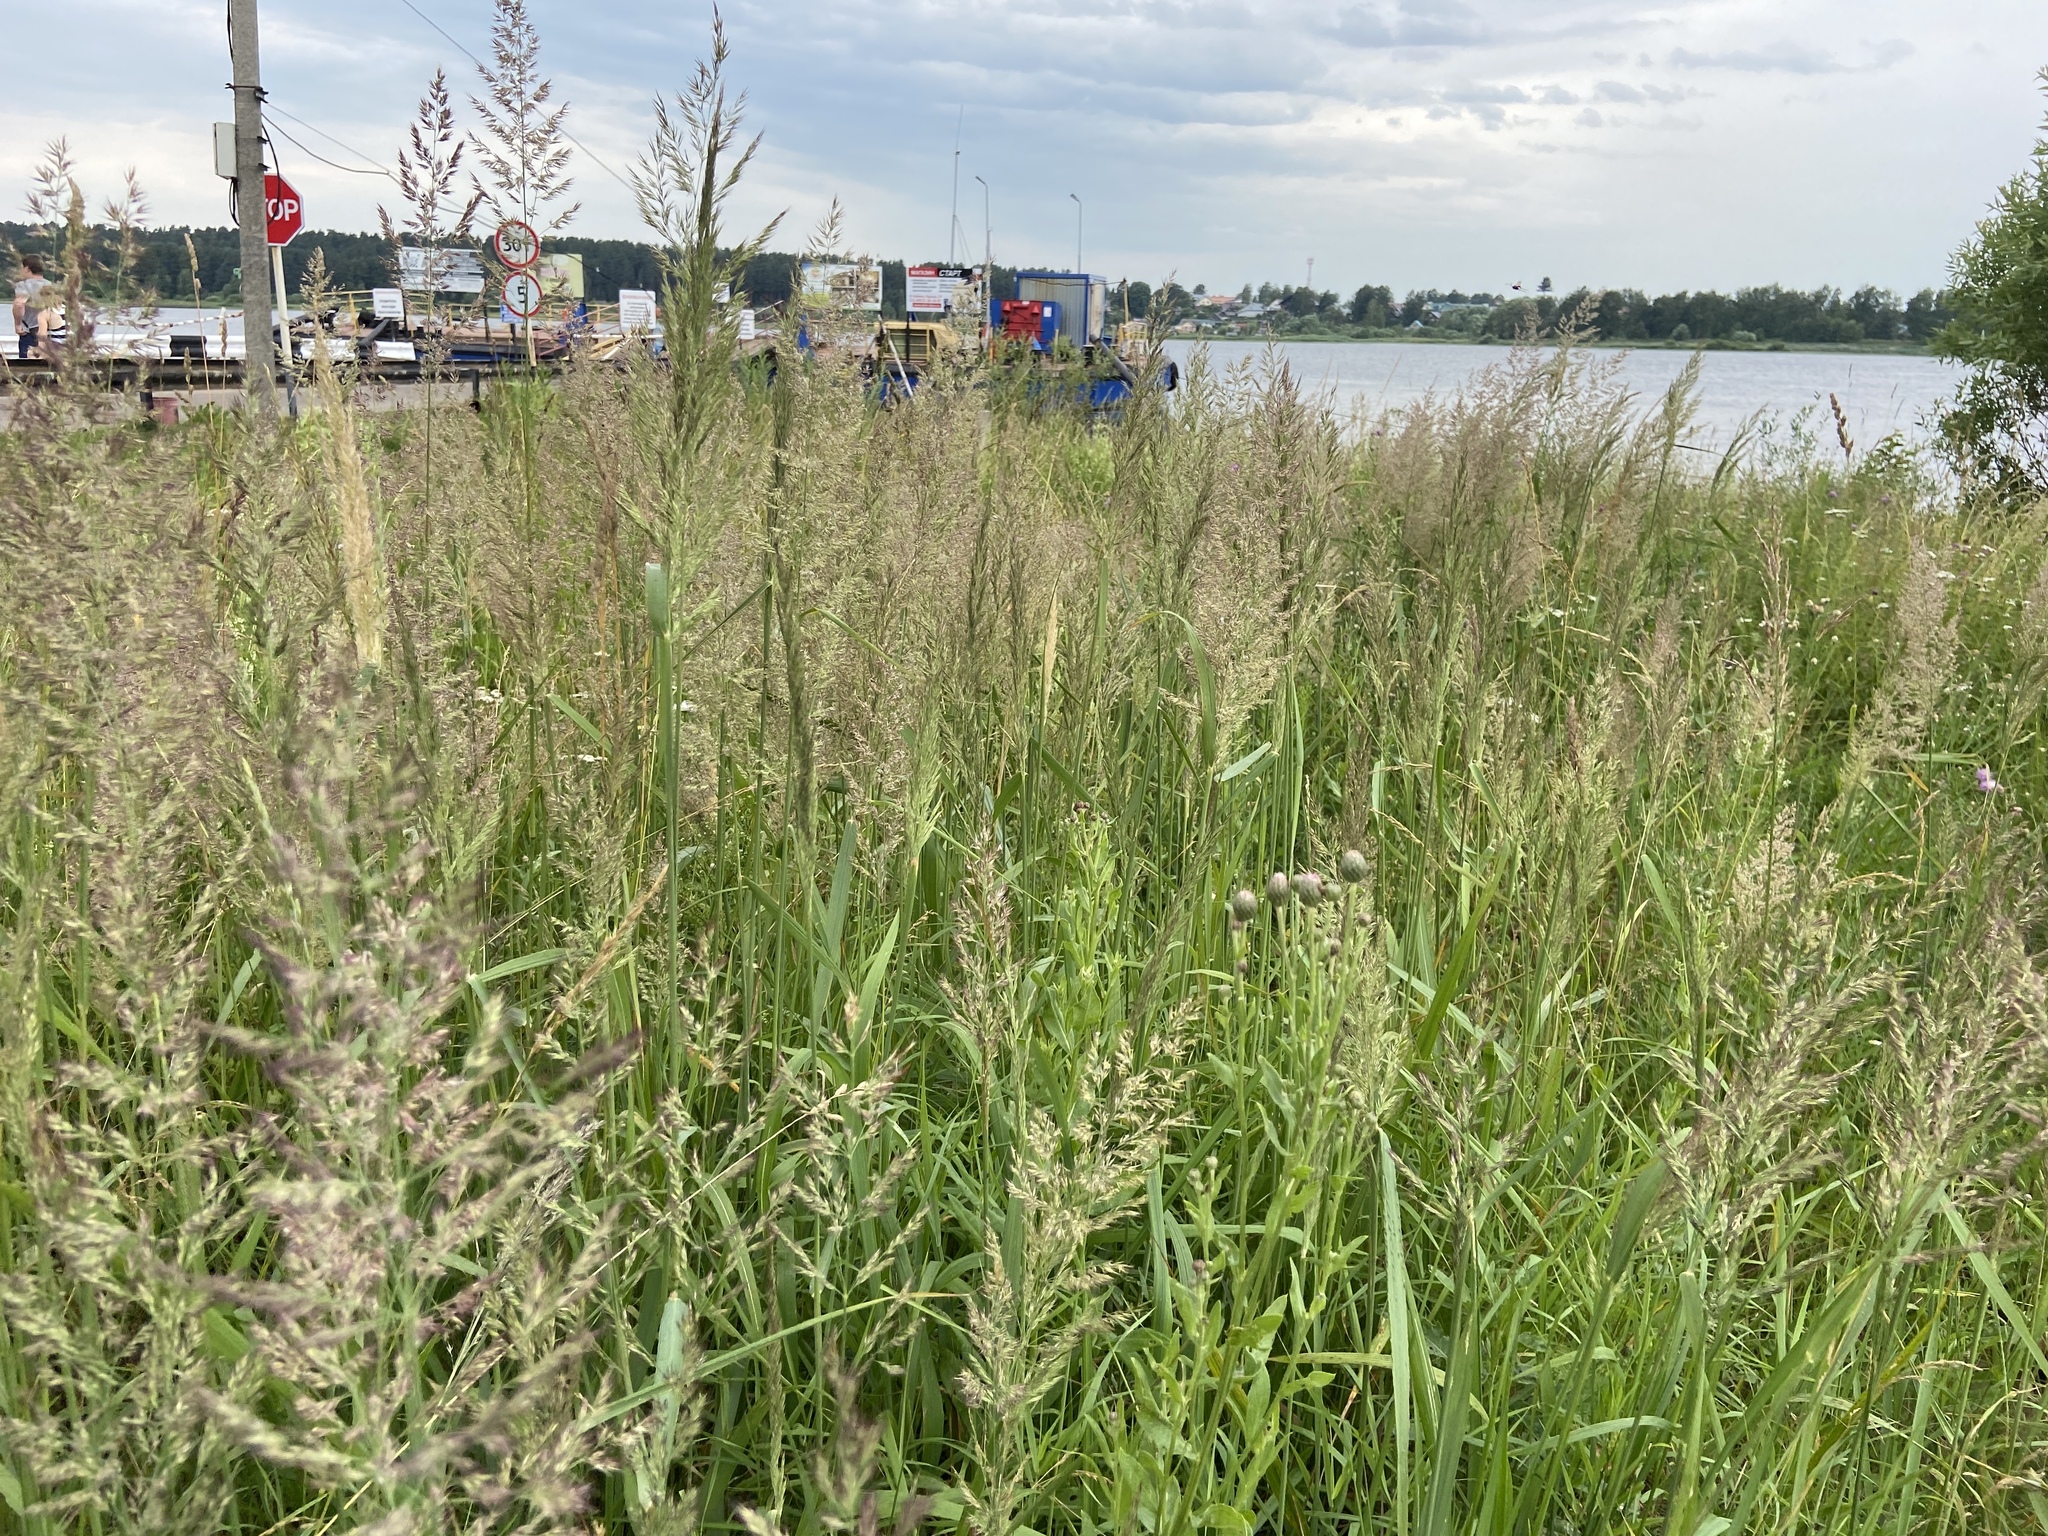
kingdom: Plantae
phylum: Tracheophyta
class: Liliopsida
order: Poales
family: Poaceae
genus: Calamagrostis
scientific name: Calamagrostis epigejos
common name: Wood small-reed
